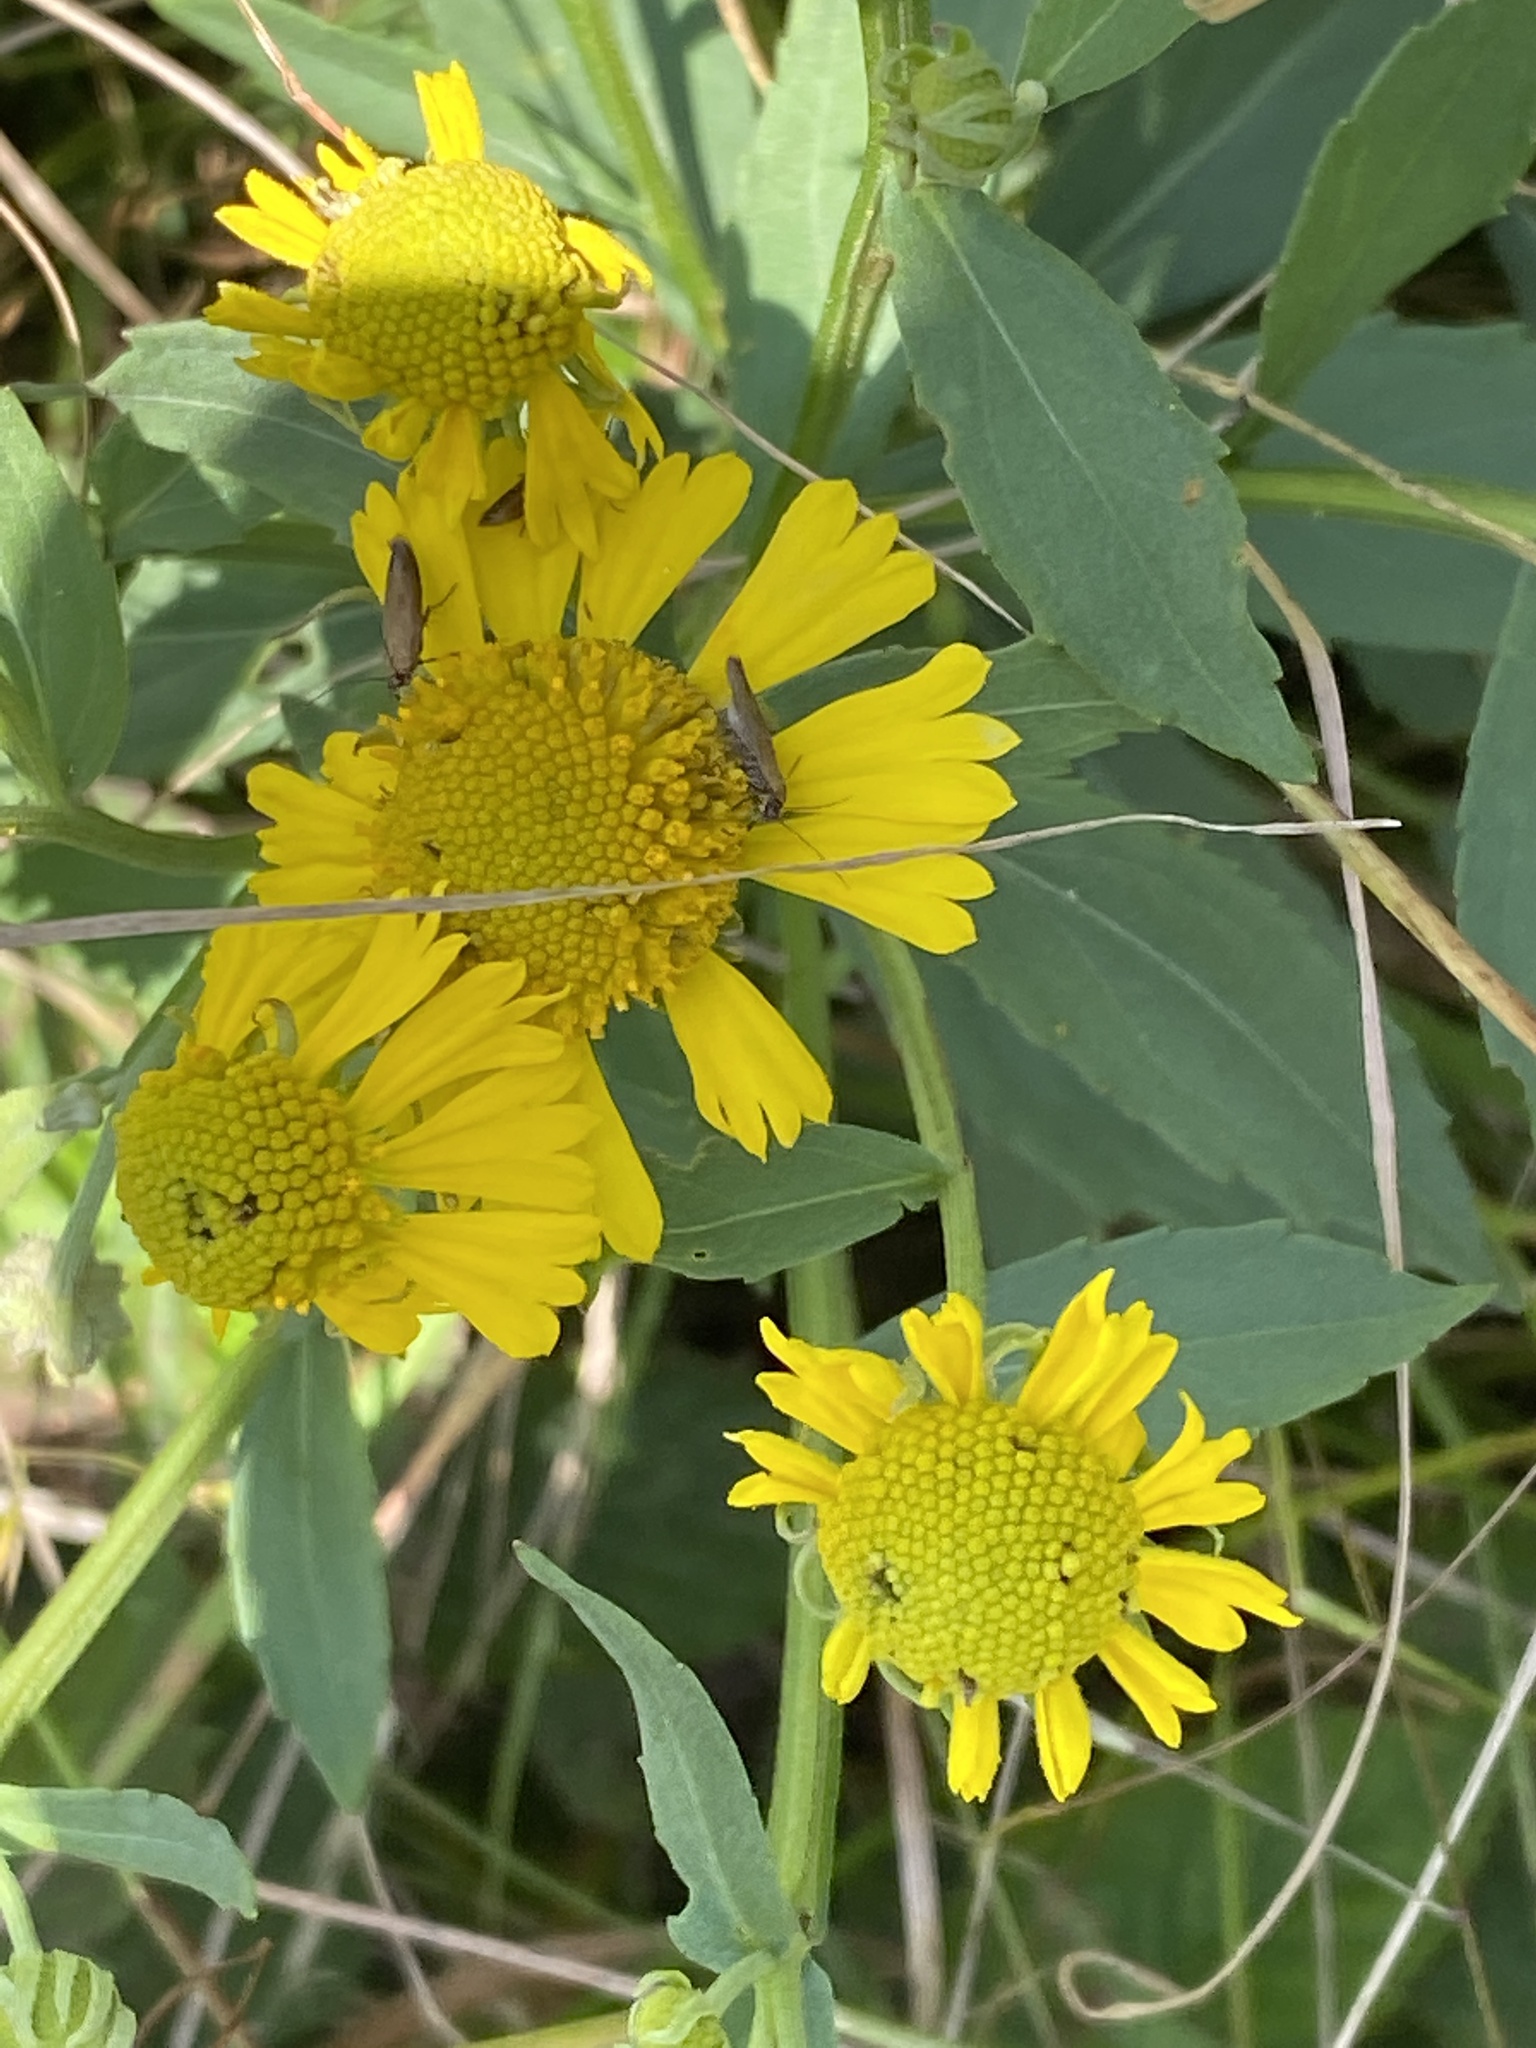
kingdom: Plantae
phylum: Tracheophyta
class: Magnoliopsida
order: Asterales
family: Asteraceae
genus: Helenium
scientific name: Helenium autumnale
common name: Sneezeweed
